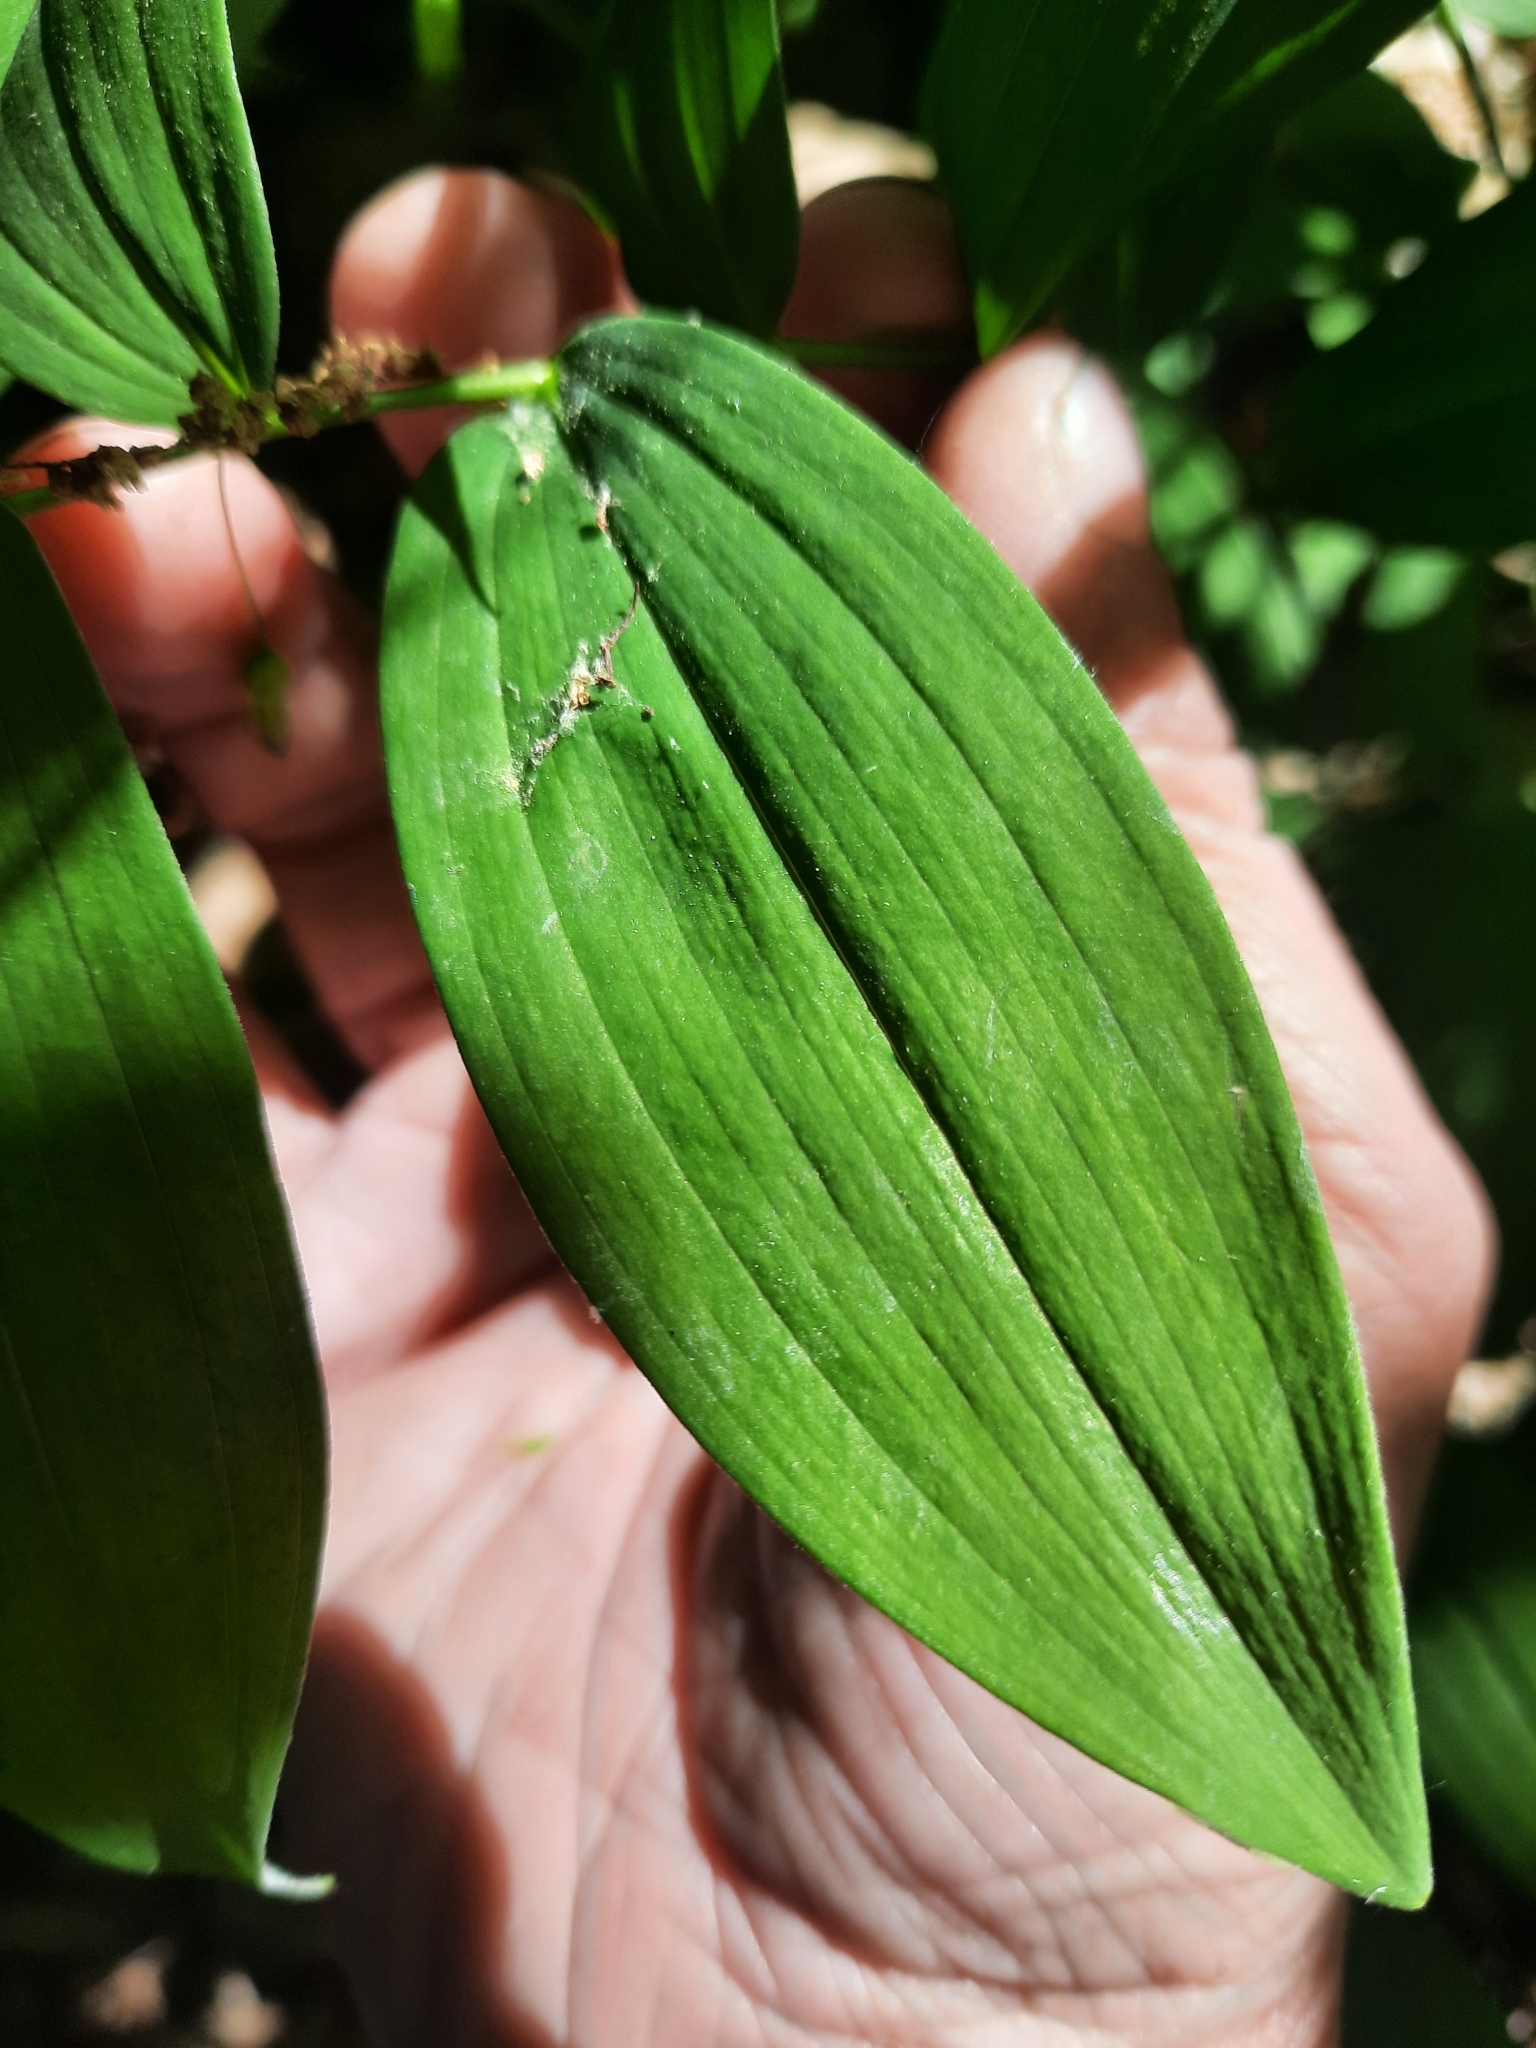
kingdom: Plantae
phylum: Tracheophyta
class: Liliopsida
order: Asparagales
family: Asparagaceae
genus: Polygonatum
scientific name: Polygonatum pubescens
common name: Downy solomon's seal
